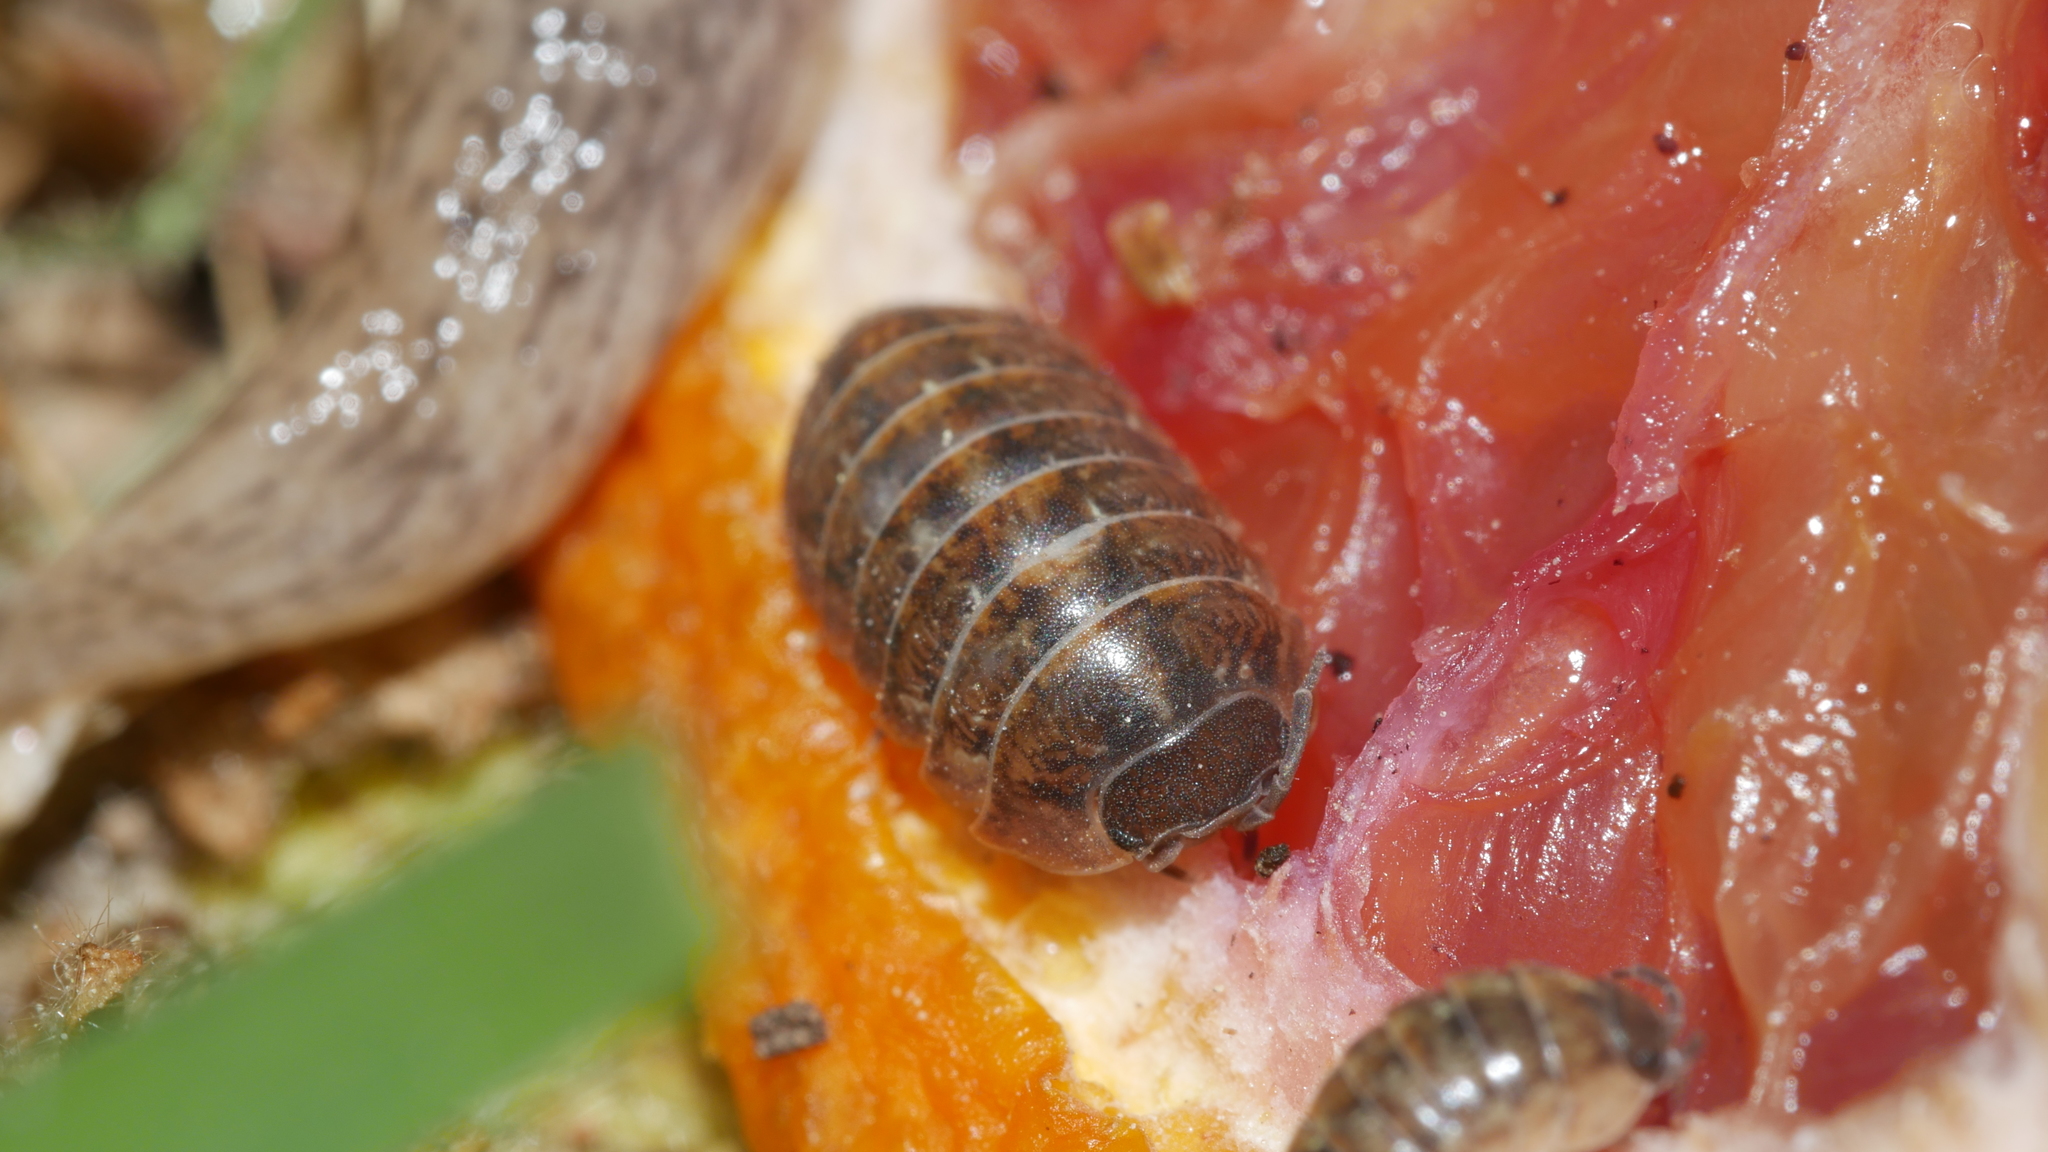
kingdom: Animalia
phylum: Arthropoda
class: Malacostraca
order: Isopoda
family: Armadillidiidae
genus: Armadillidium
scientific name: Armadillidium vulgare
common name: Common pill woodlouse
